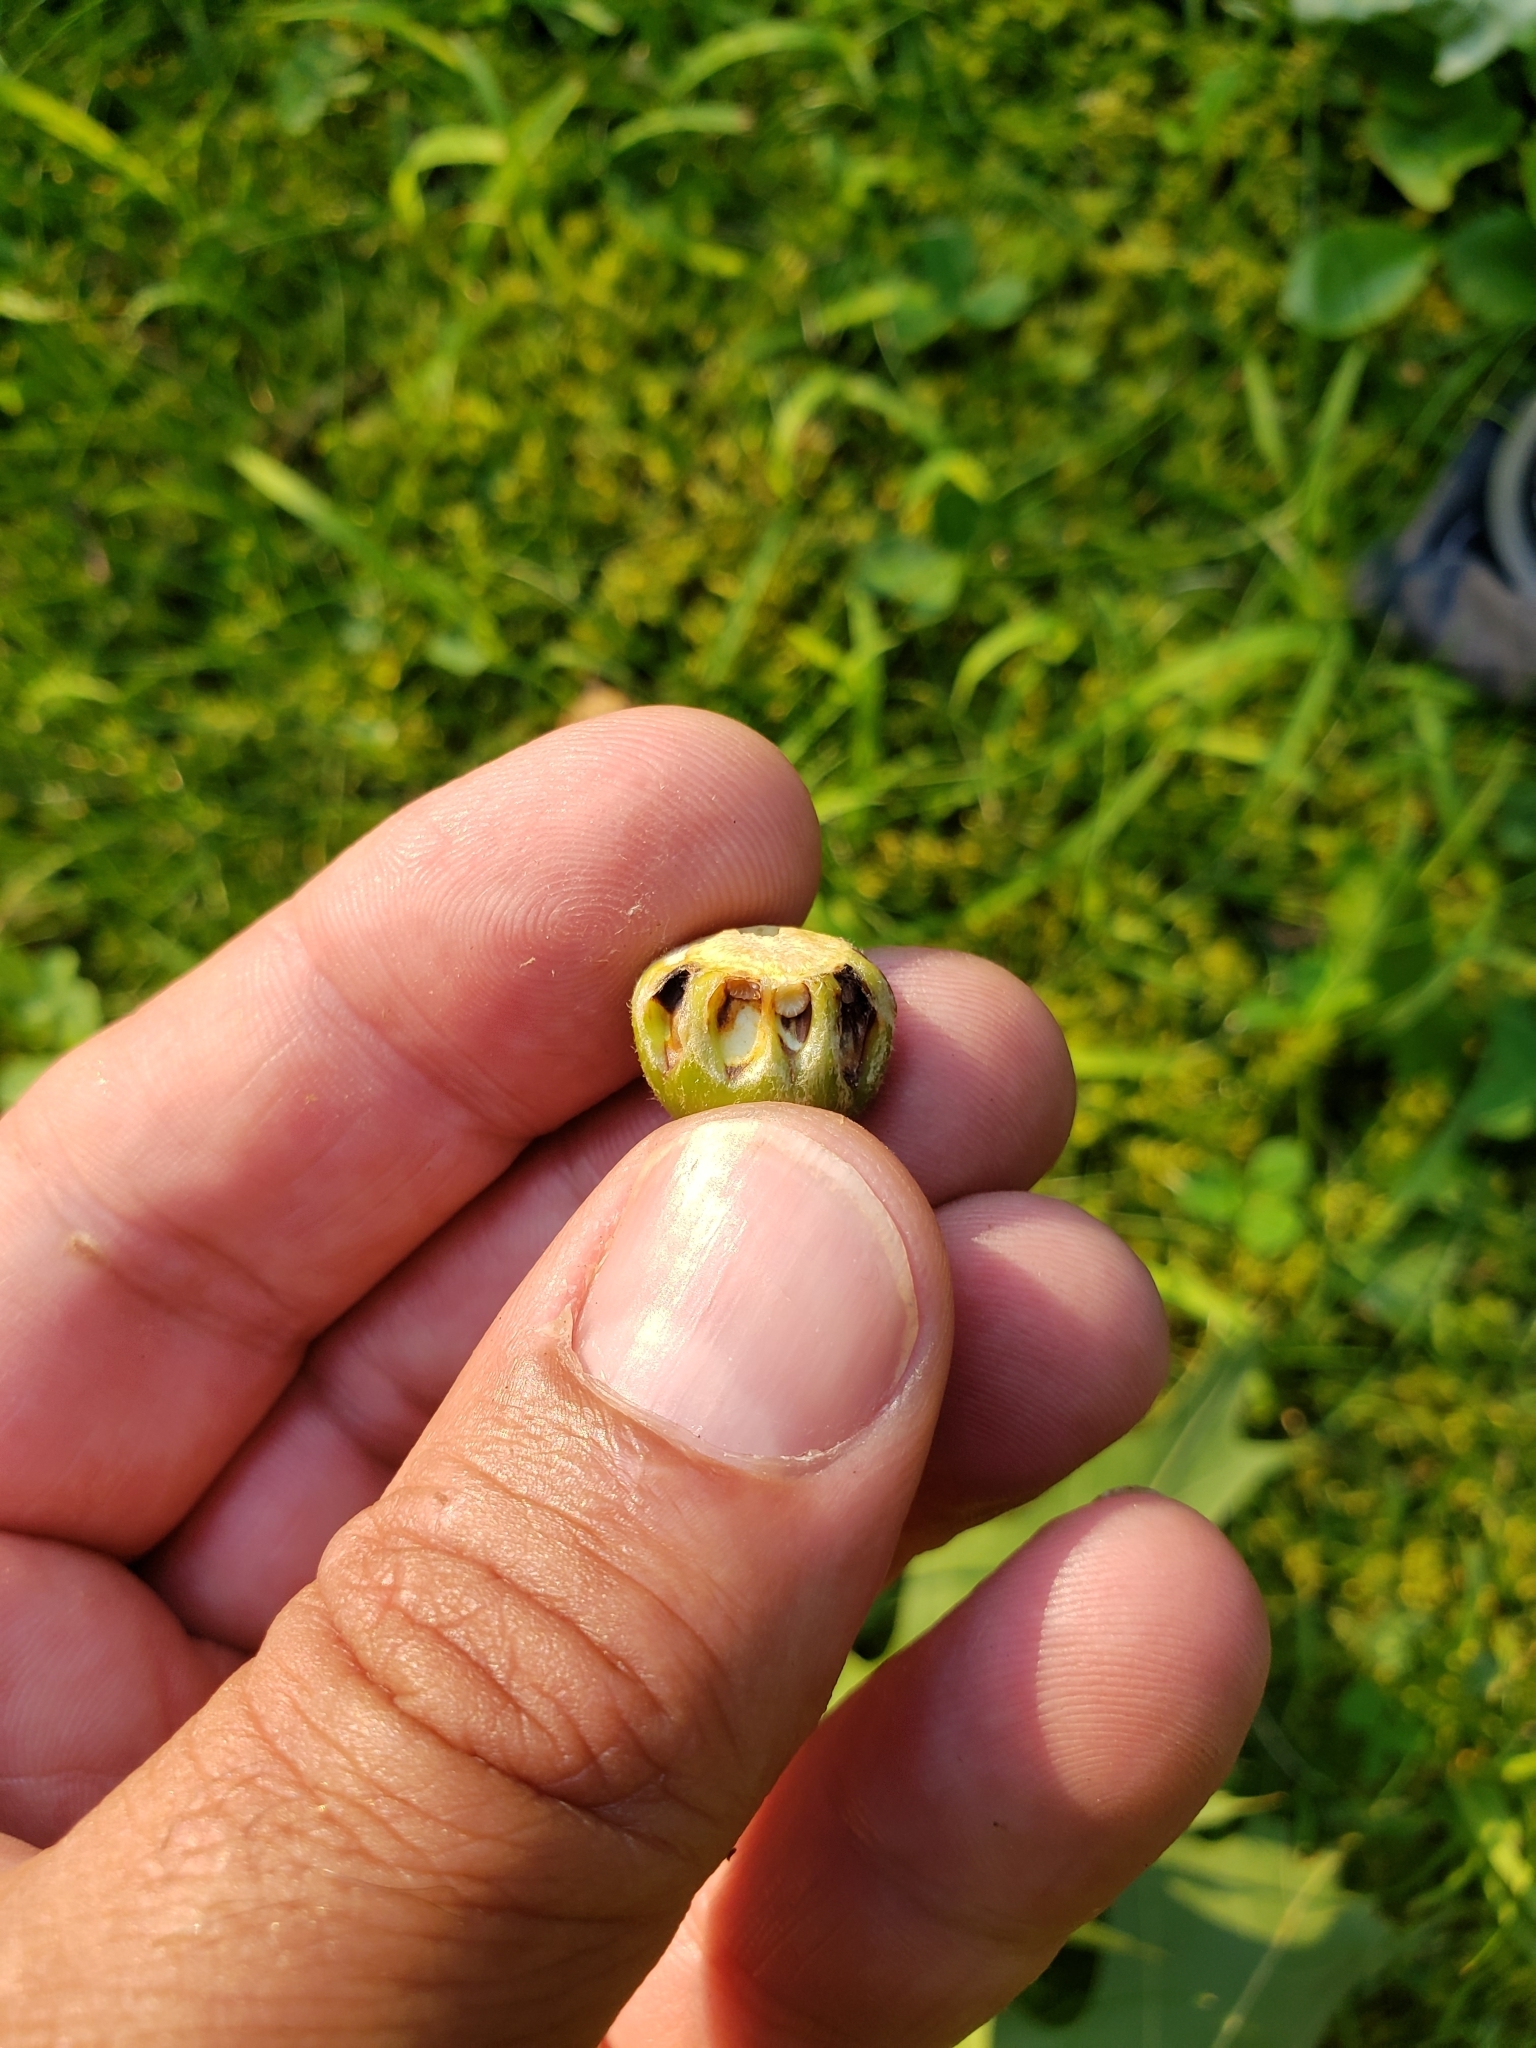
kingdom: Animalia
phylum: Arthropoda
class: Insecta
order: Hymenoptera
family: Cynipidae
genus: Callirhytis
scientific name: Callirhytis
